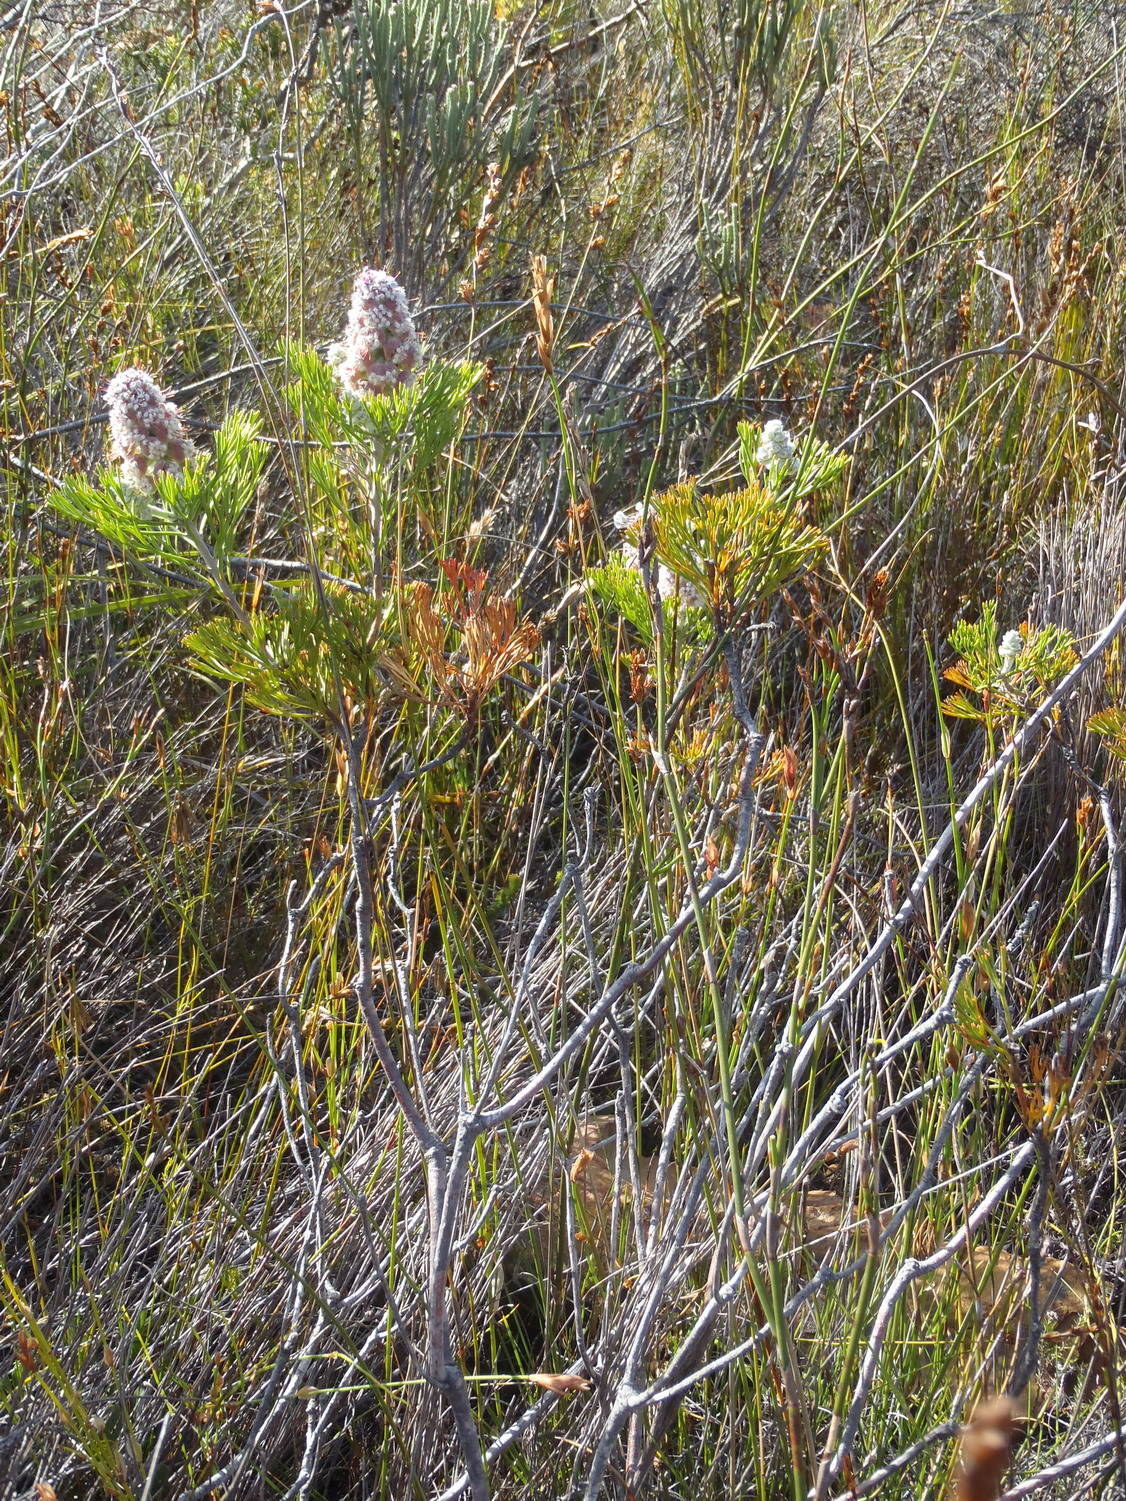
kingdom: Plantae
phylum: Tracheophyta
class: Magnoliopsida
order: Proteales
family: Proteaceae
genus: Paranomus
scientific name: Paranomus abrotanifolius
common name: Bredasdorp sceptre
